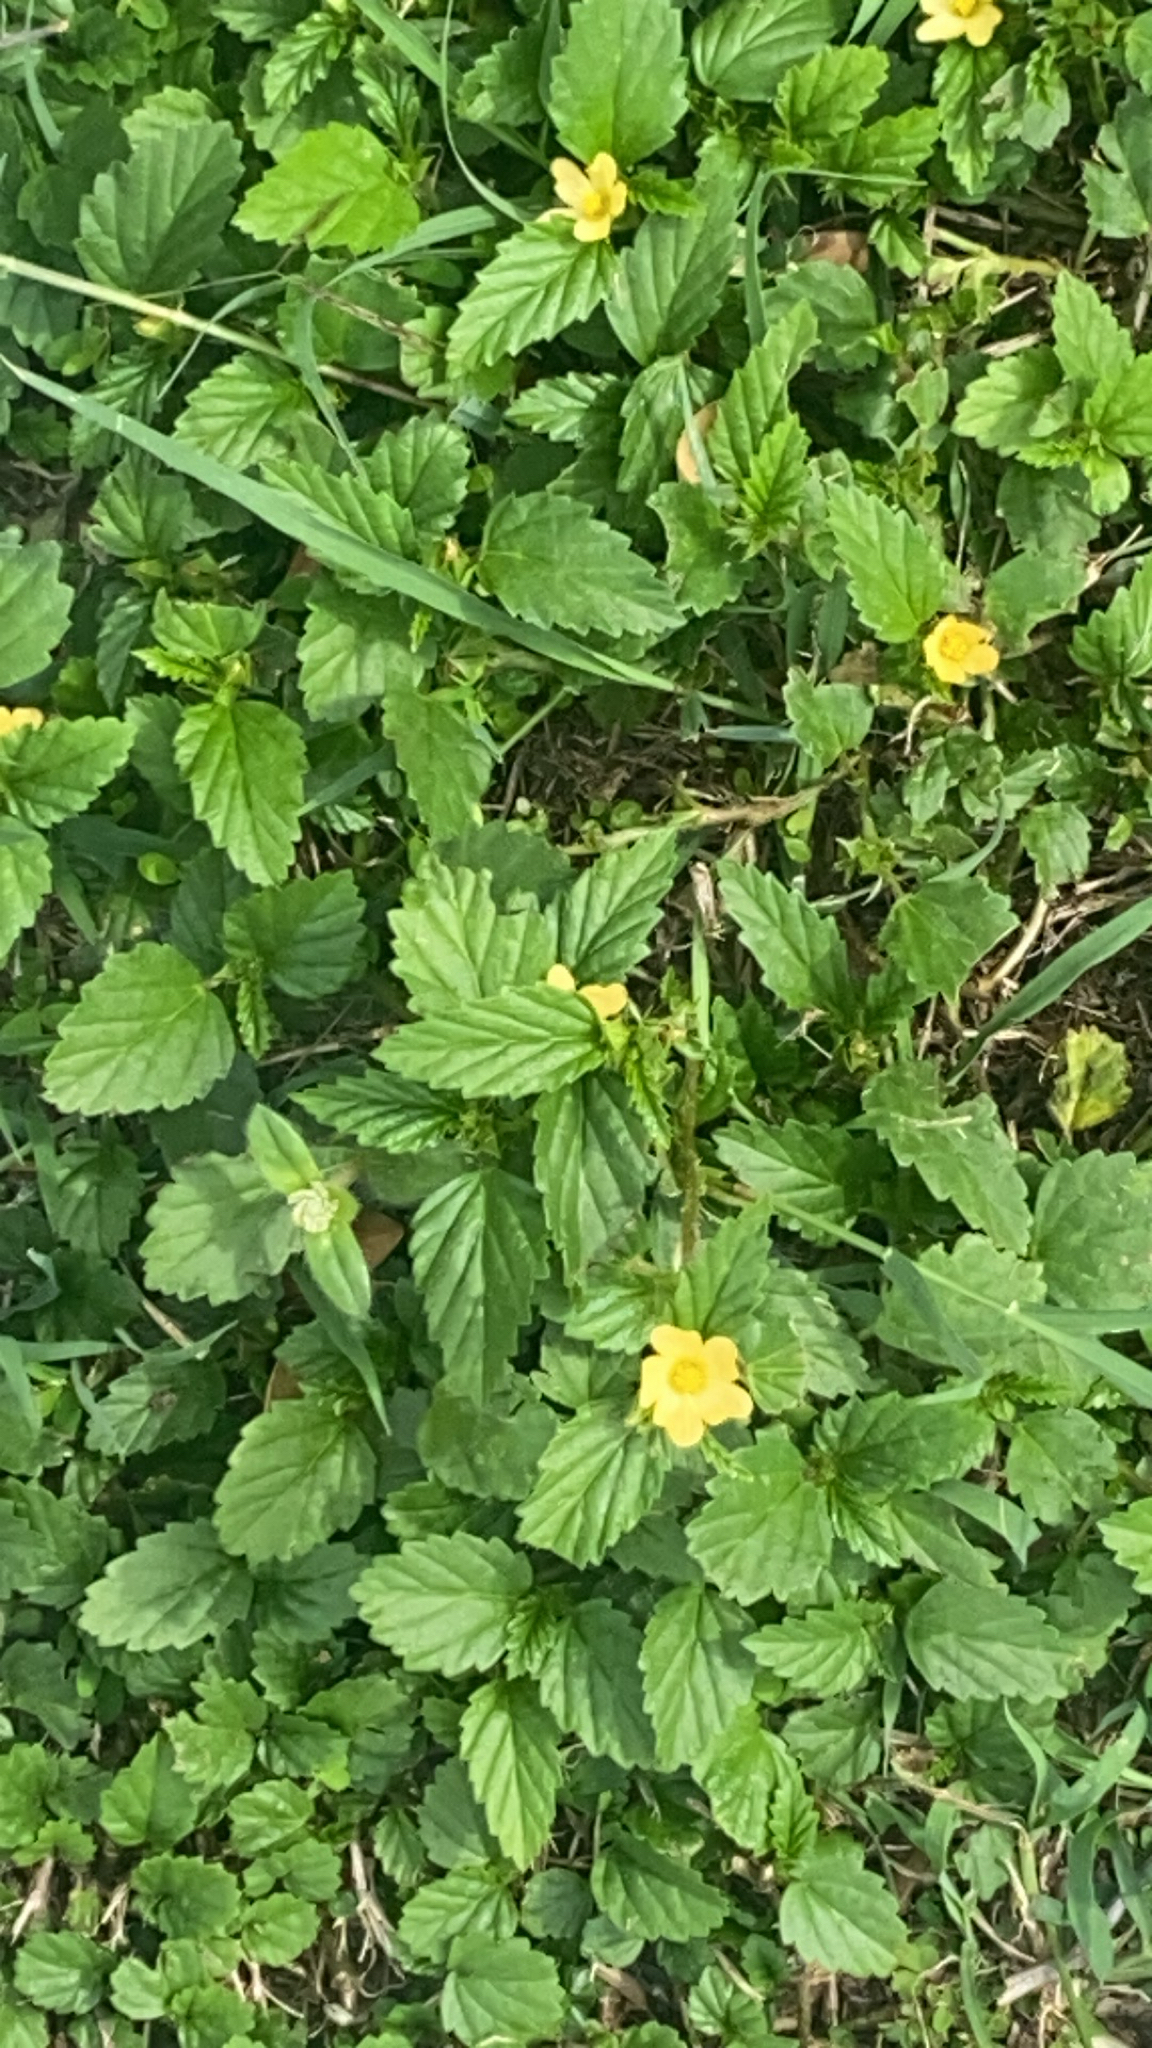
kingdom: Plantae
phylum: Tracheophyta
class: Magnoliopsida
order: Malvales
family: Malvaceae
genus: Malvastrum
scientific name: Malvastrum coromandelianum
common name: Threelobe false mallow
